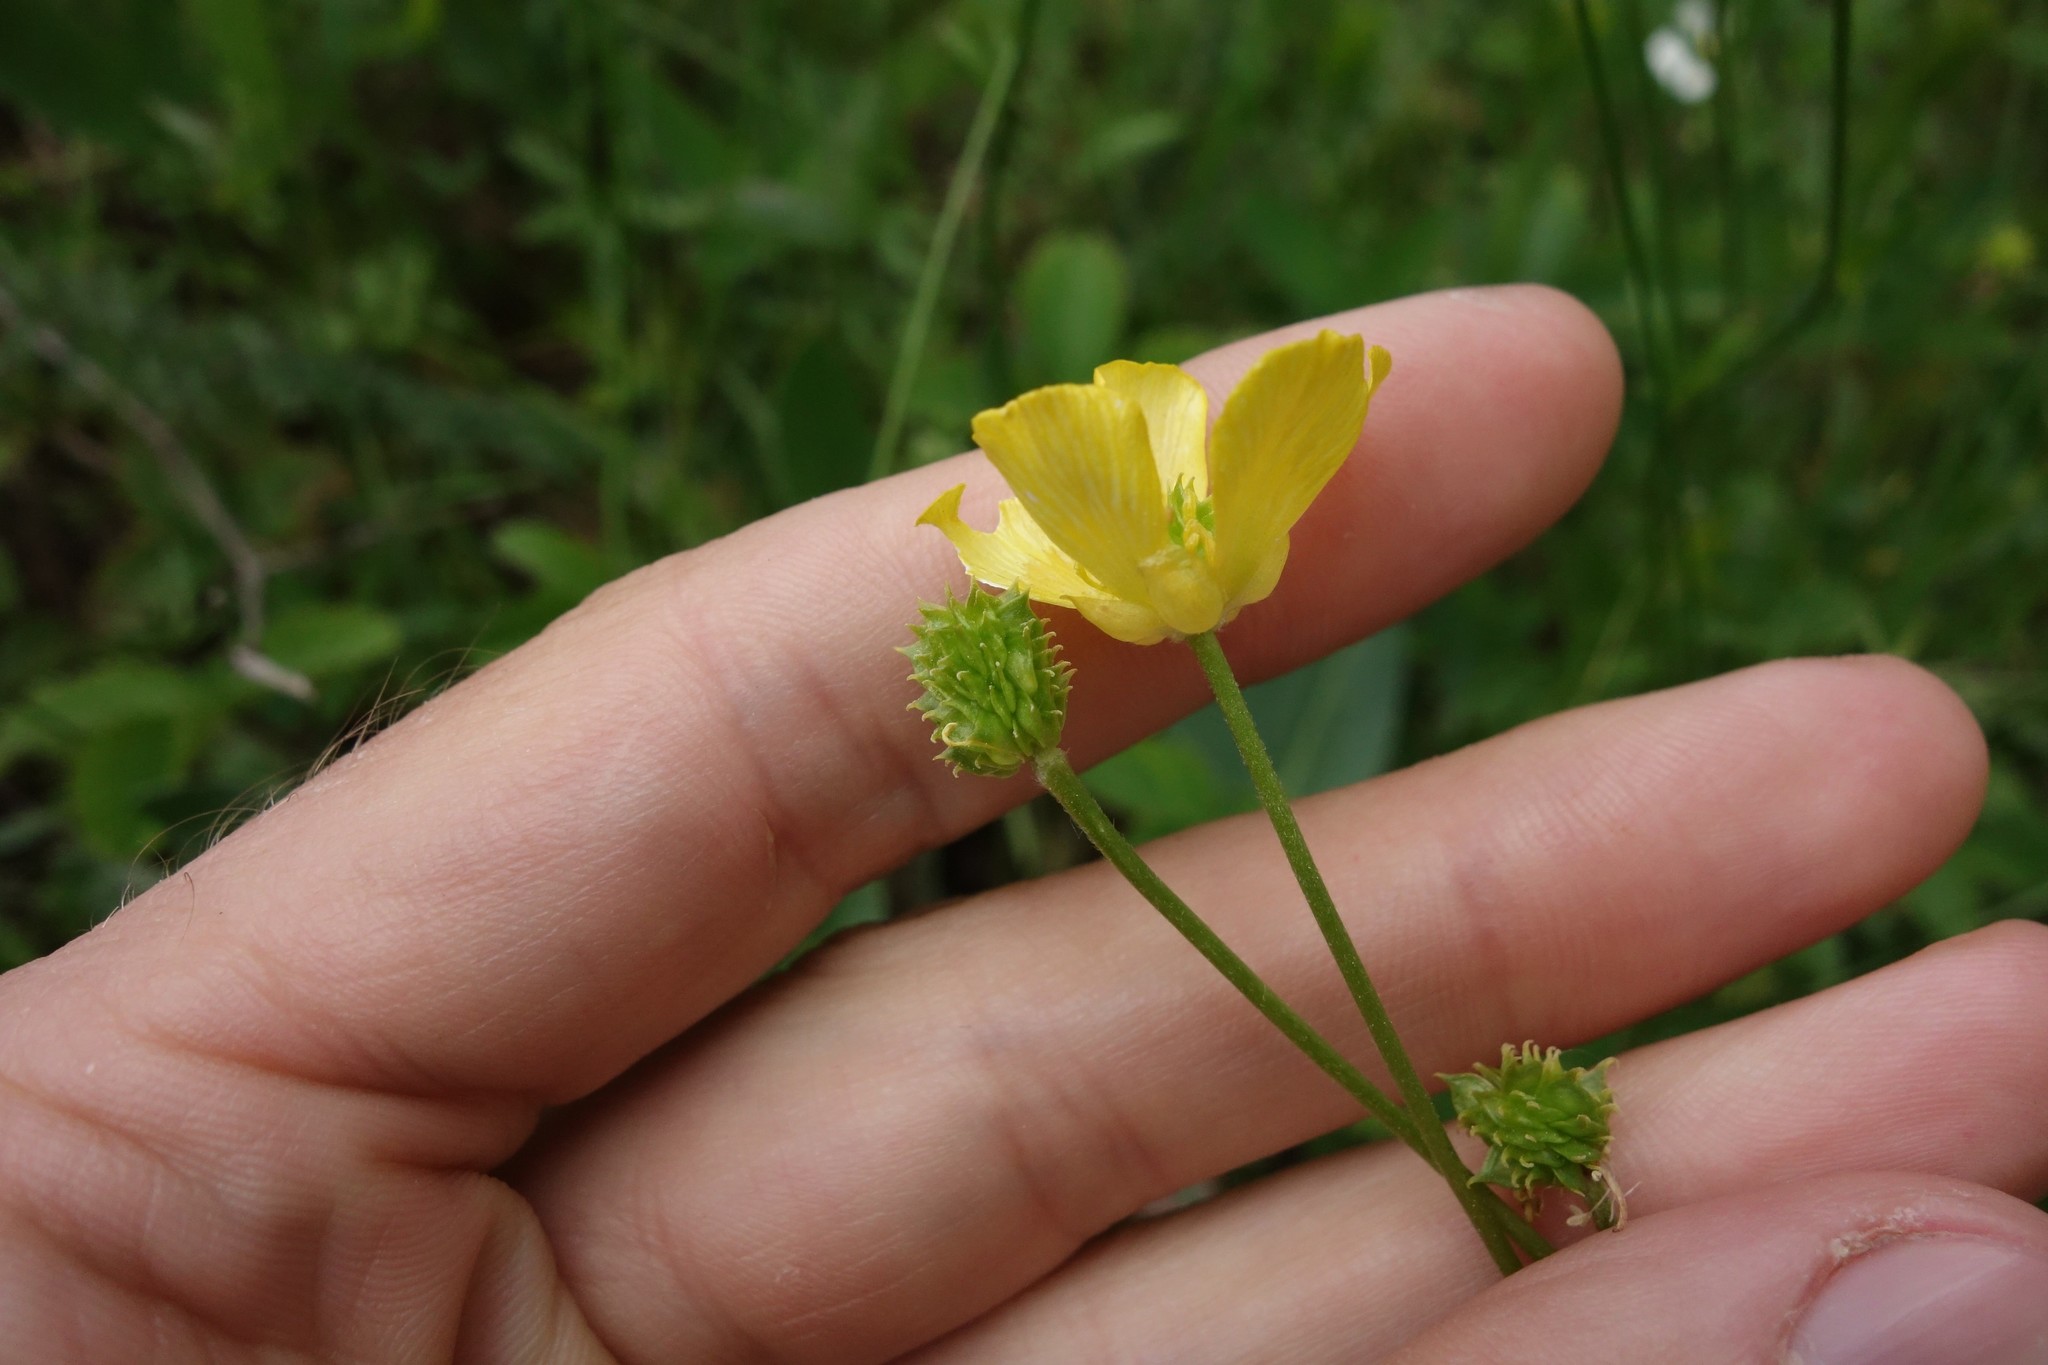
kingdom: Plantae
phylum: Tracheophyta
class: Magnoliopsida
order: Ranunculales
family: Ranunculaceae
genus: Ranunculus
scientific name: Ranunculus pedatus
